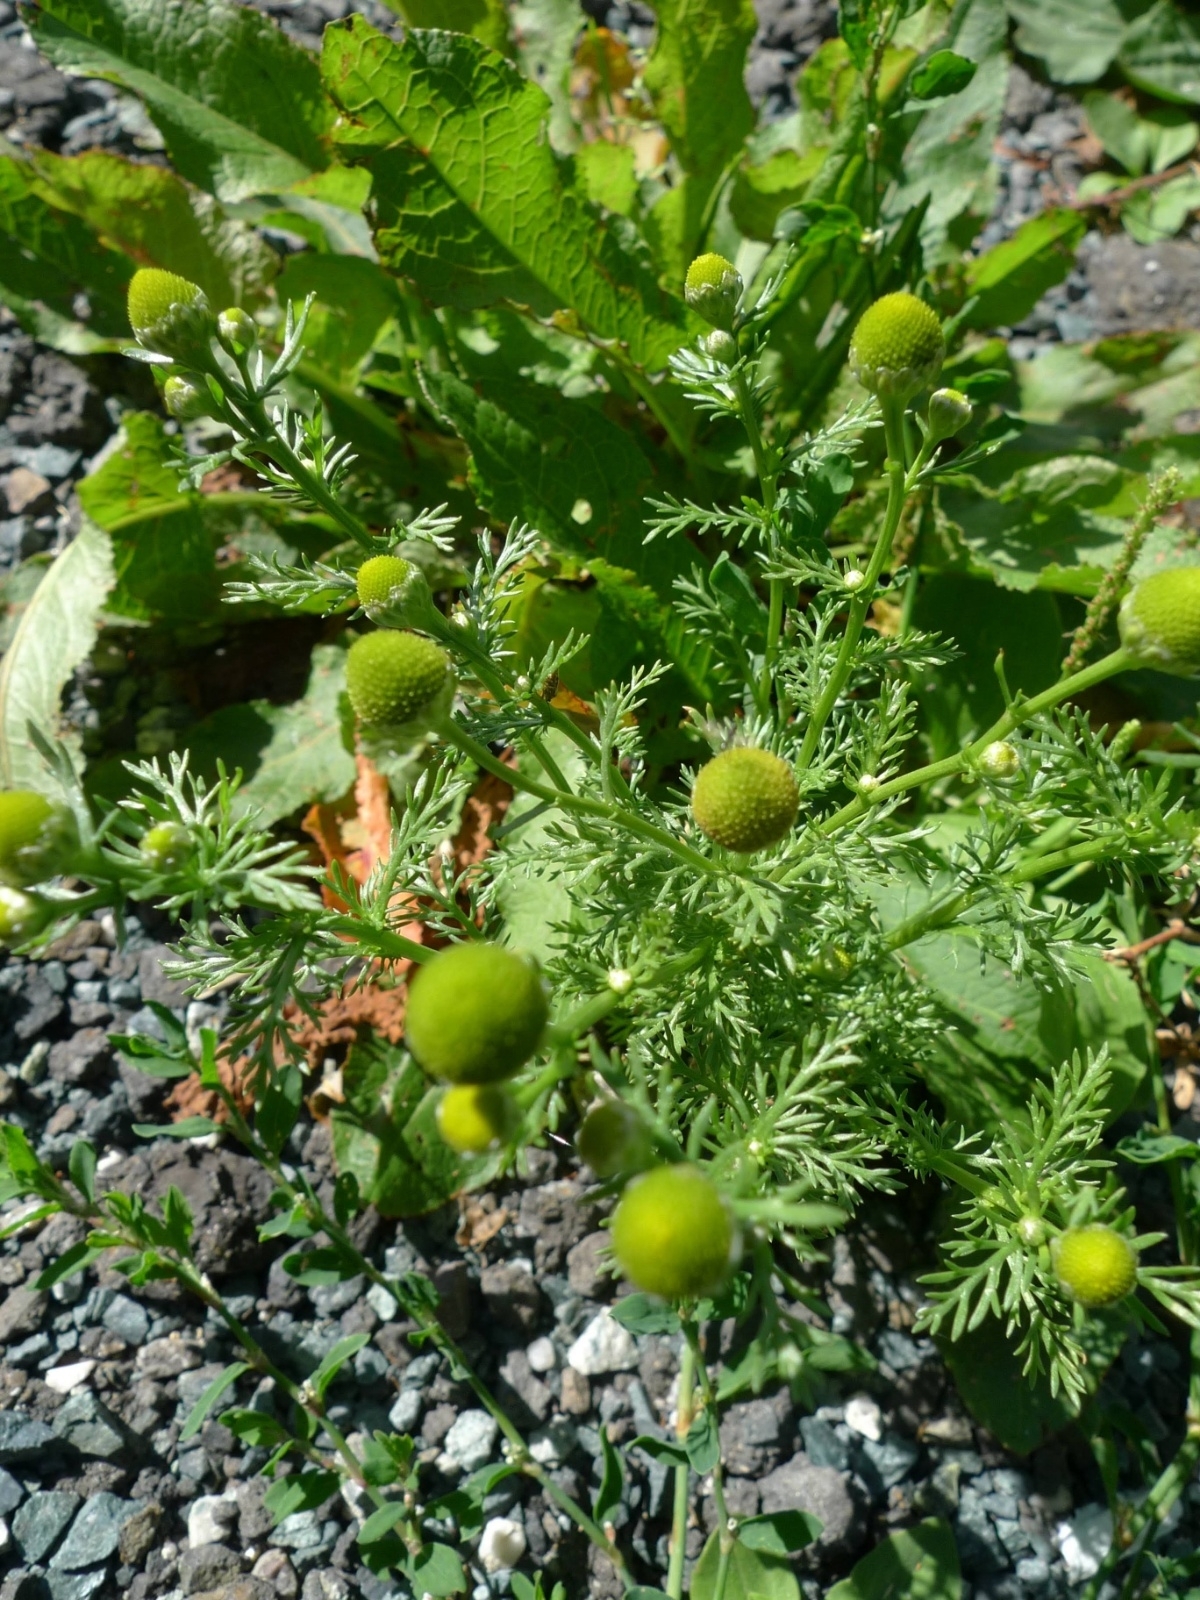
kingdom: Plantae
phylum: Tracheophyta
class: Magnoliopsida
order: Asterales
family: Asteraceae
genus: Matricaria
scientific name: Matricaria discoidea
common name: Disc mayweed
